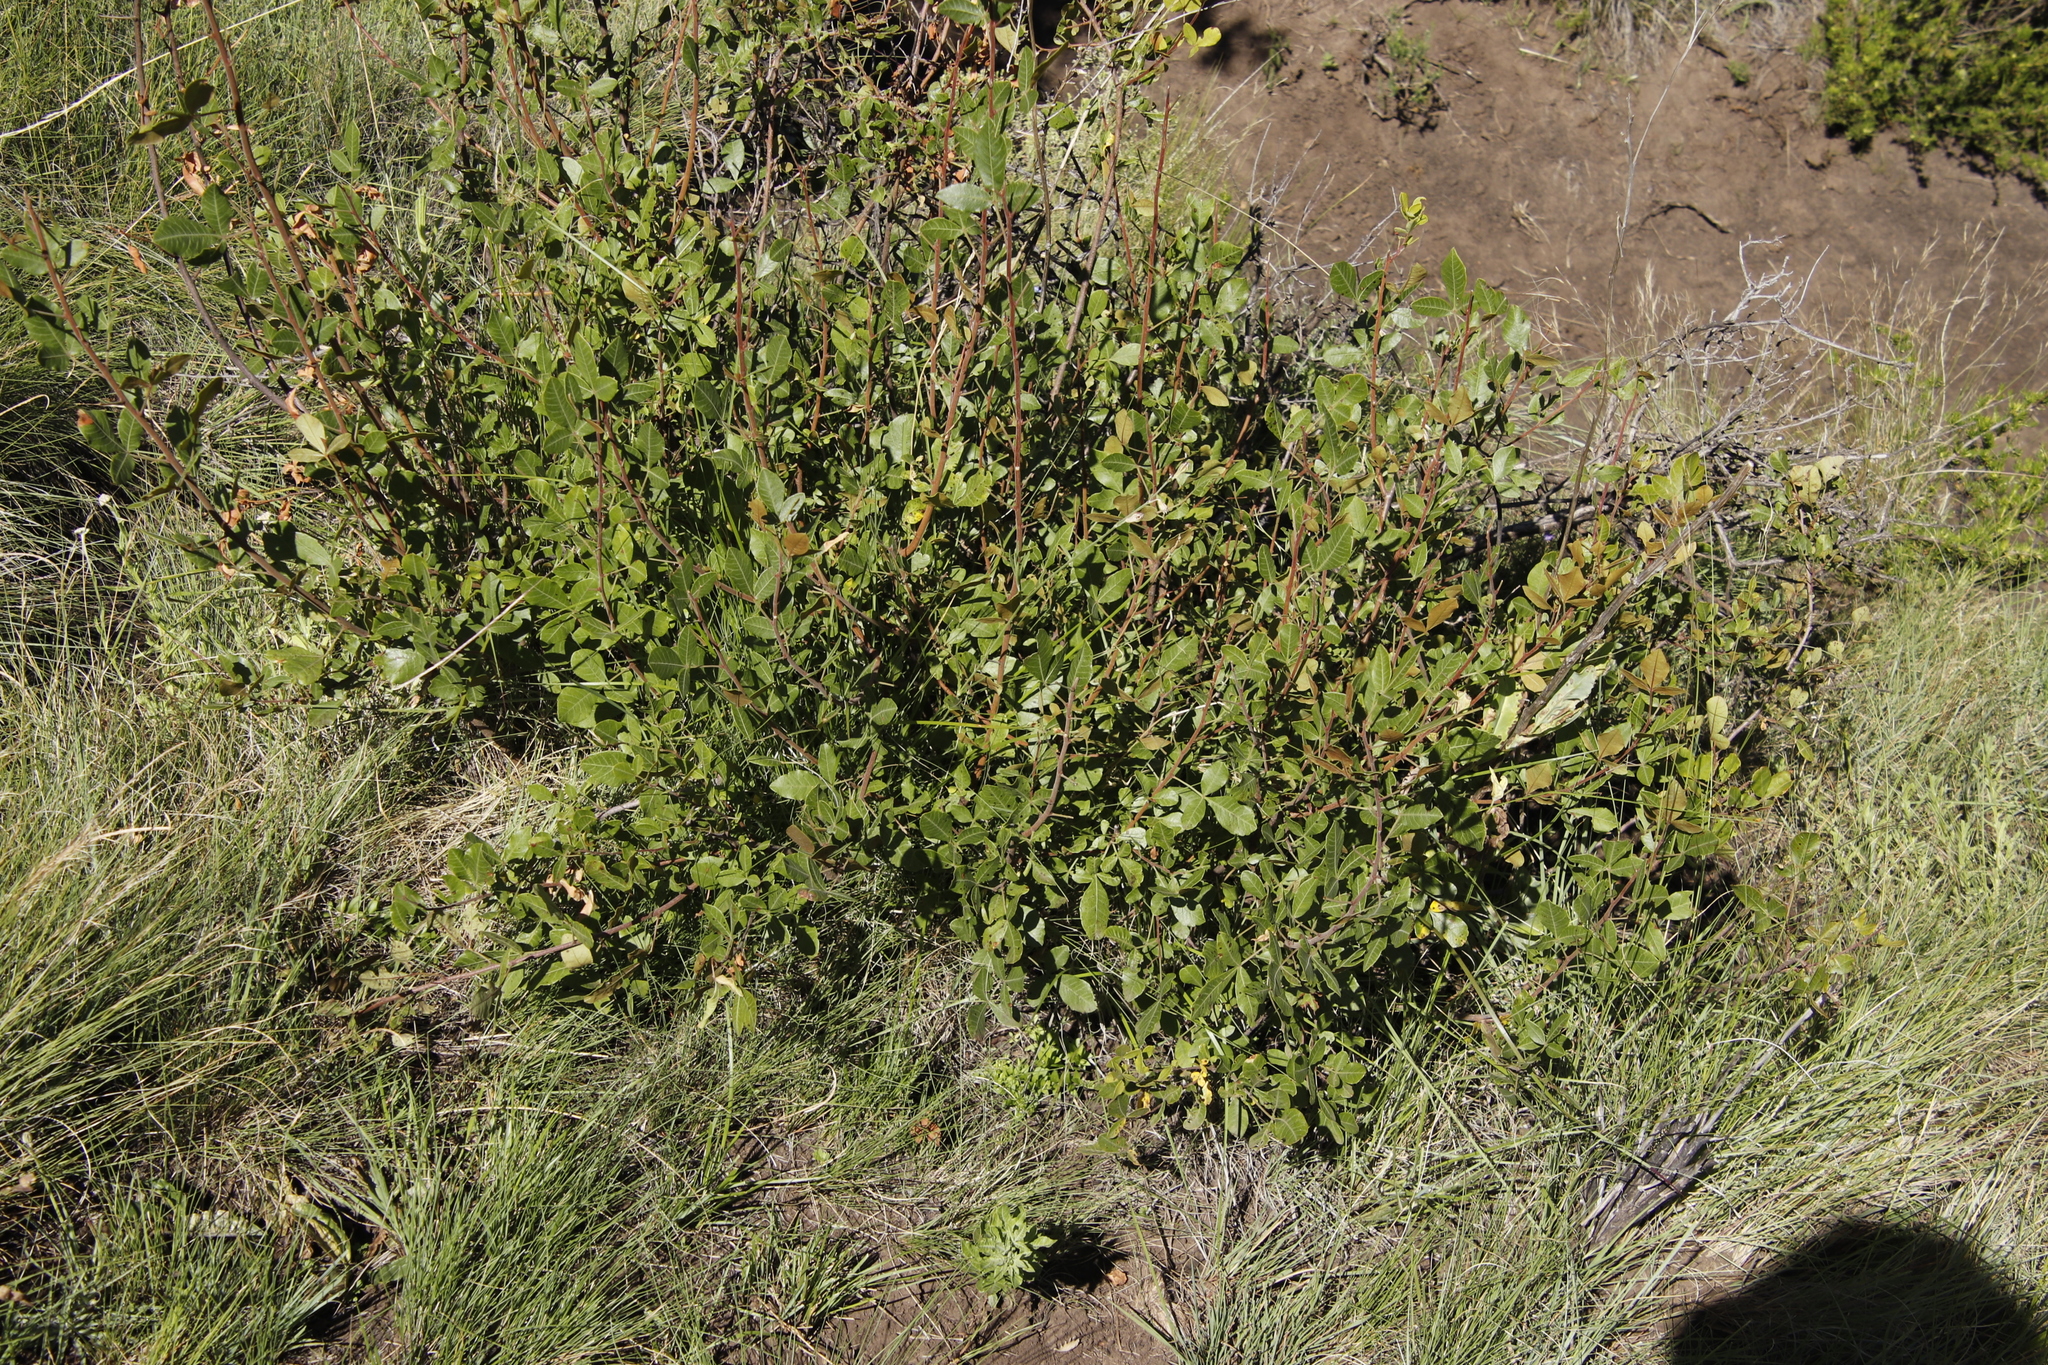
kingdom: Plantae
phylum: Tracheophyta
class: Magnoliopsida
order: Sapindales
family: Anacardiaceae
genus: Searsia
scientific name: Searsia divaricata
